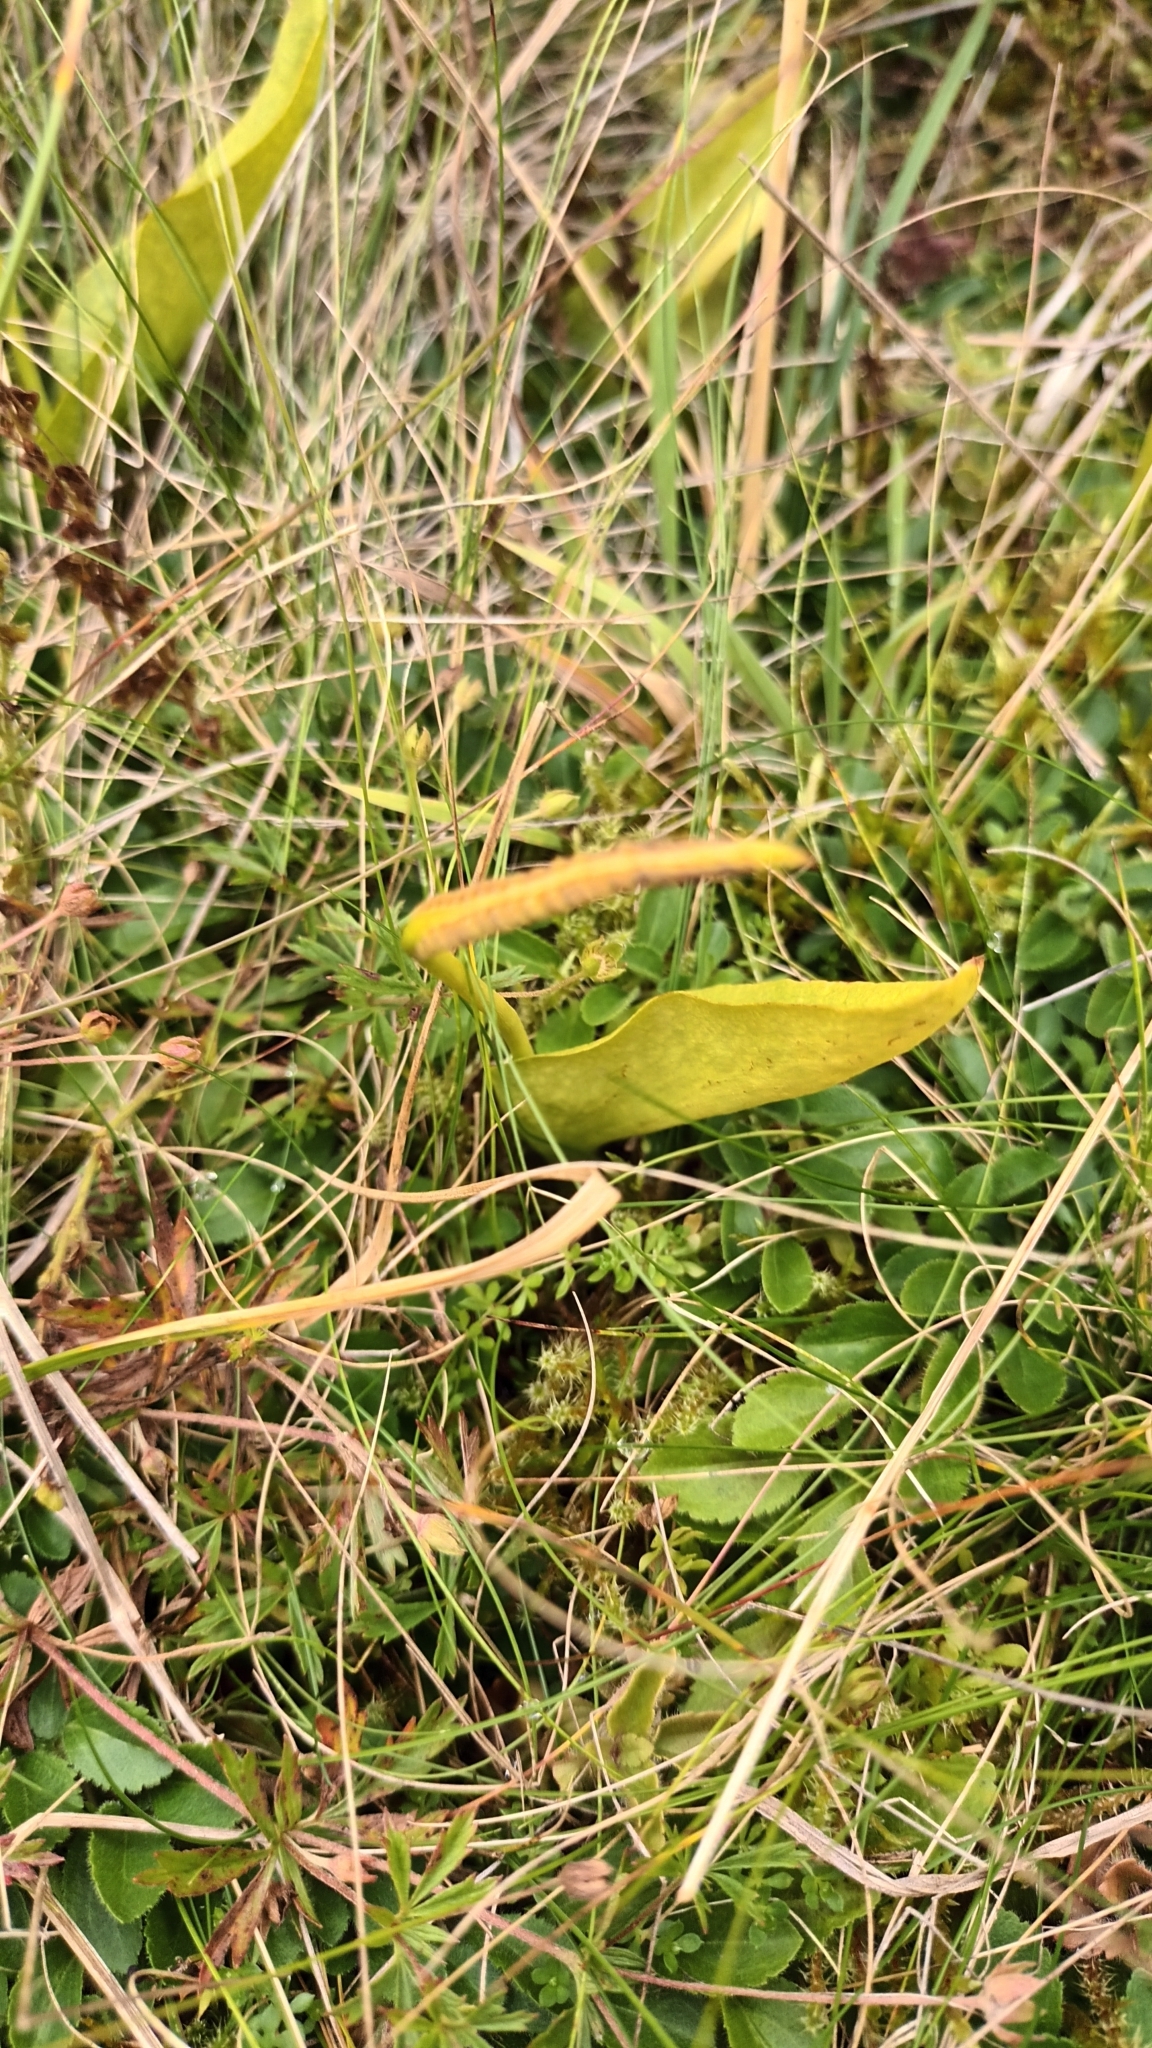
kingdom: Plantae
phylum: Tracheophyta
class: Polypodiopsida
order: Ophioglossales
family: Ophioglossaceae
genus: Ophioglossum
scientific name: Ophioglossum vulgatum
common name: Adder's-tongue
